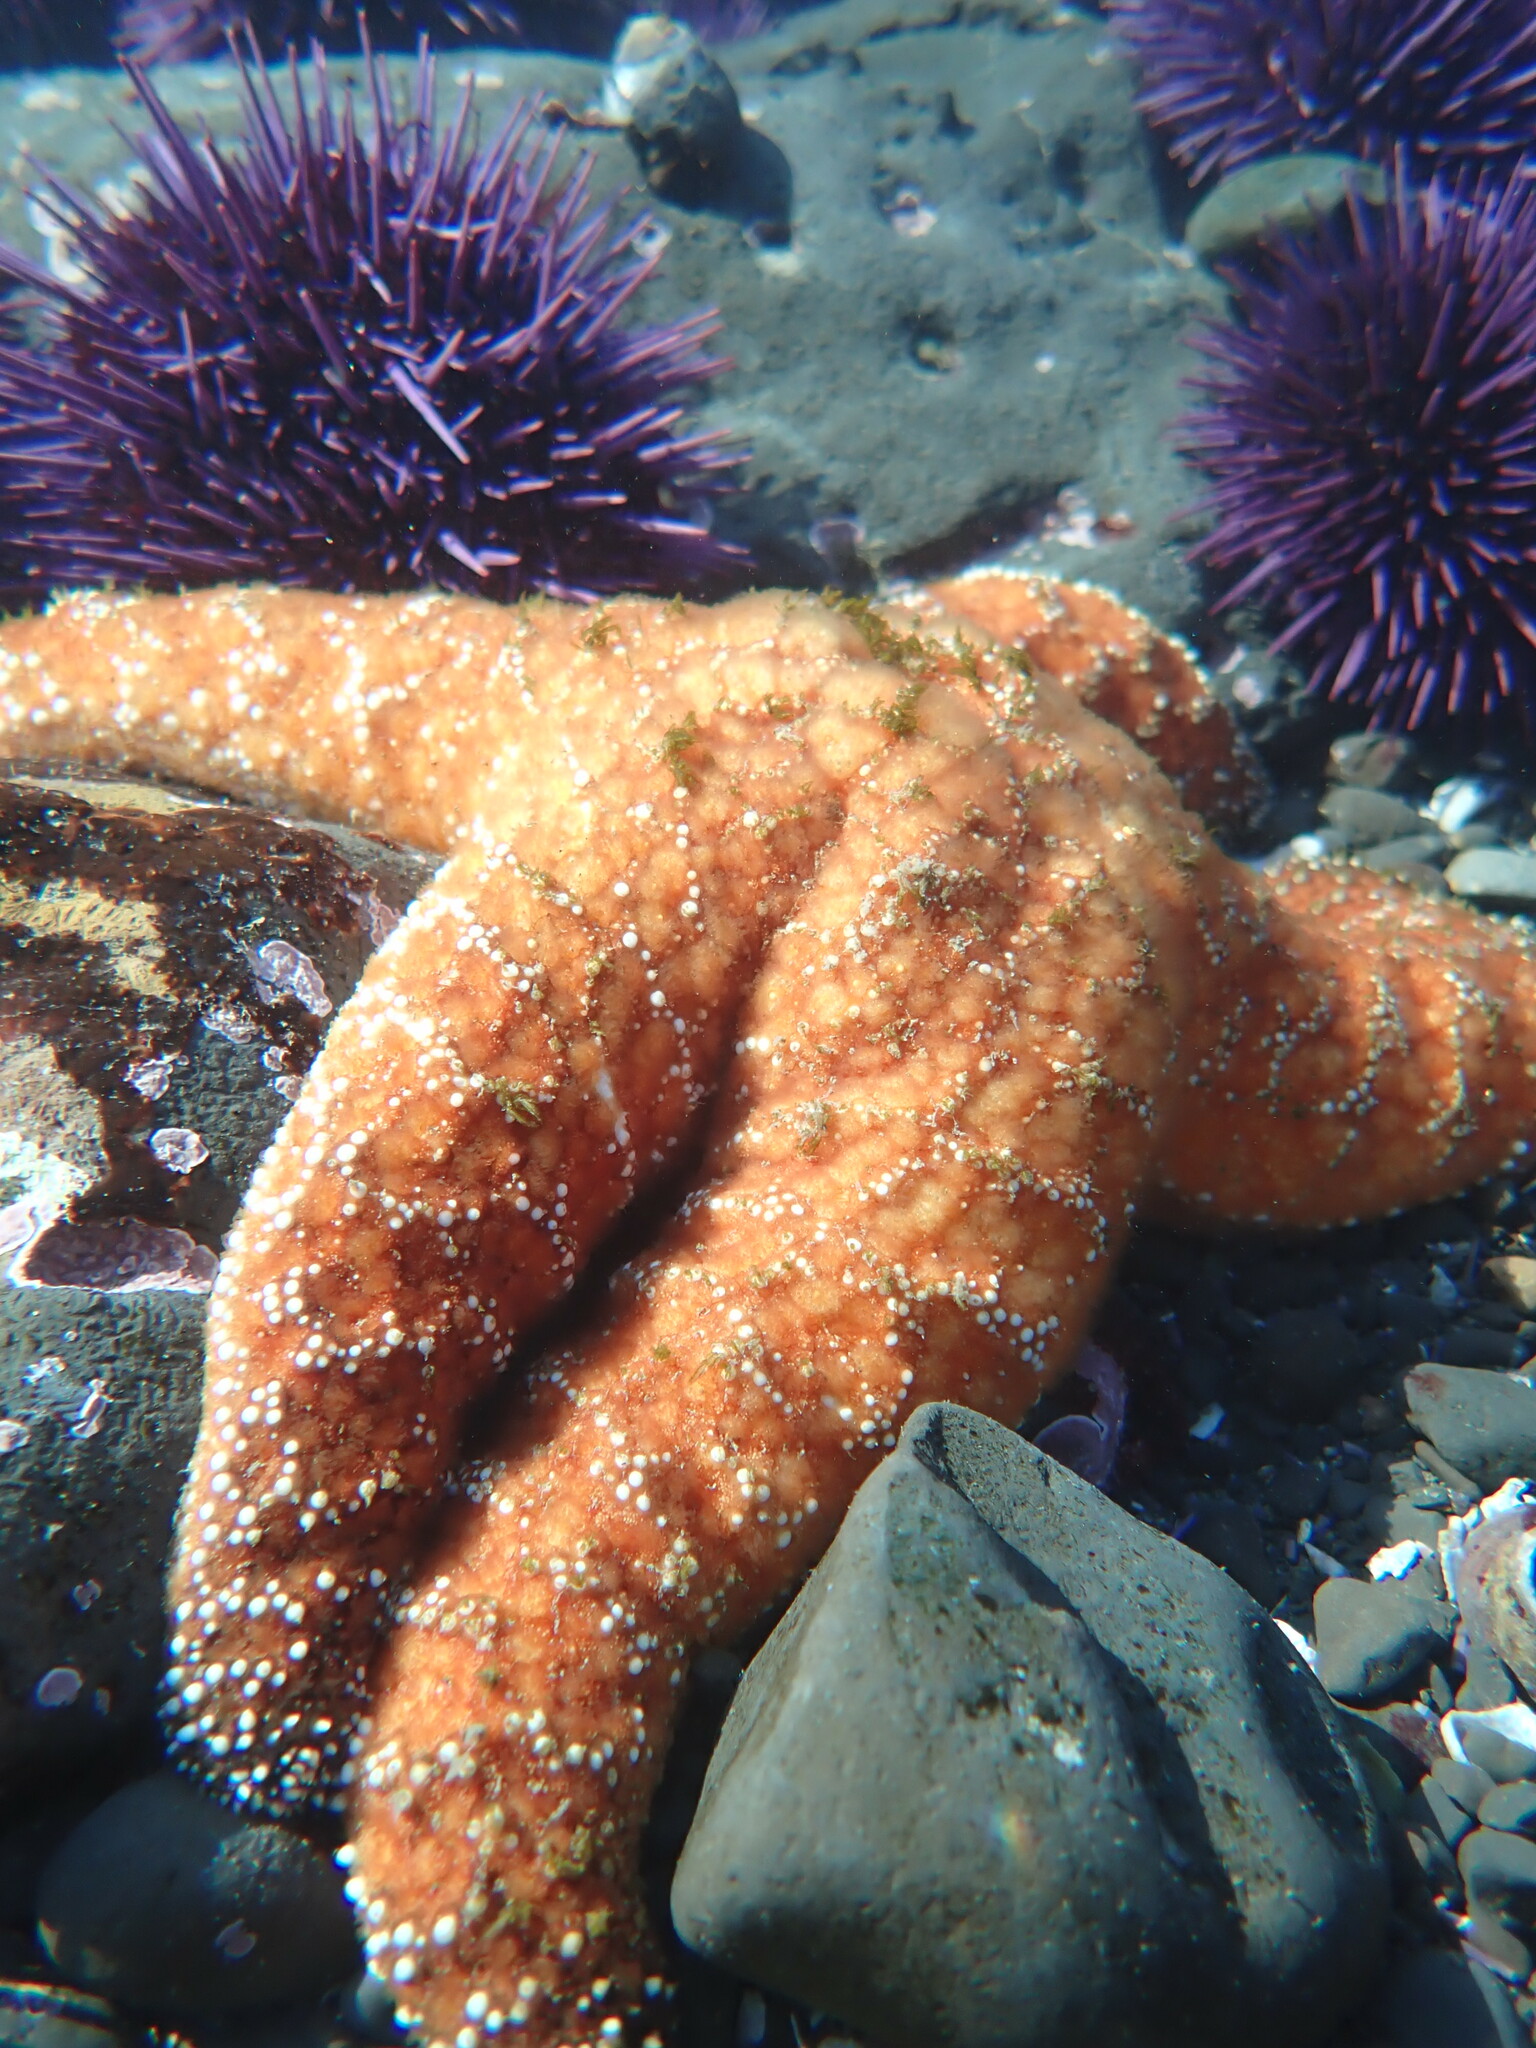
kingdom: Animalia
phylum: Echinodermata
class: Asteroidea
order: Forcipulatida
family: Asteriidae
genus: Pisaster
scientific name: Pisaster ochraceus
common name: Ochre stars
